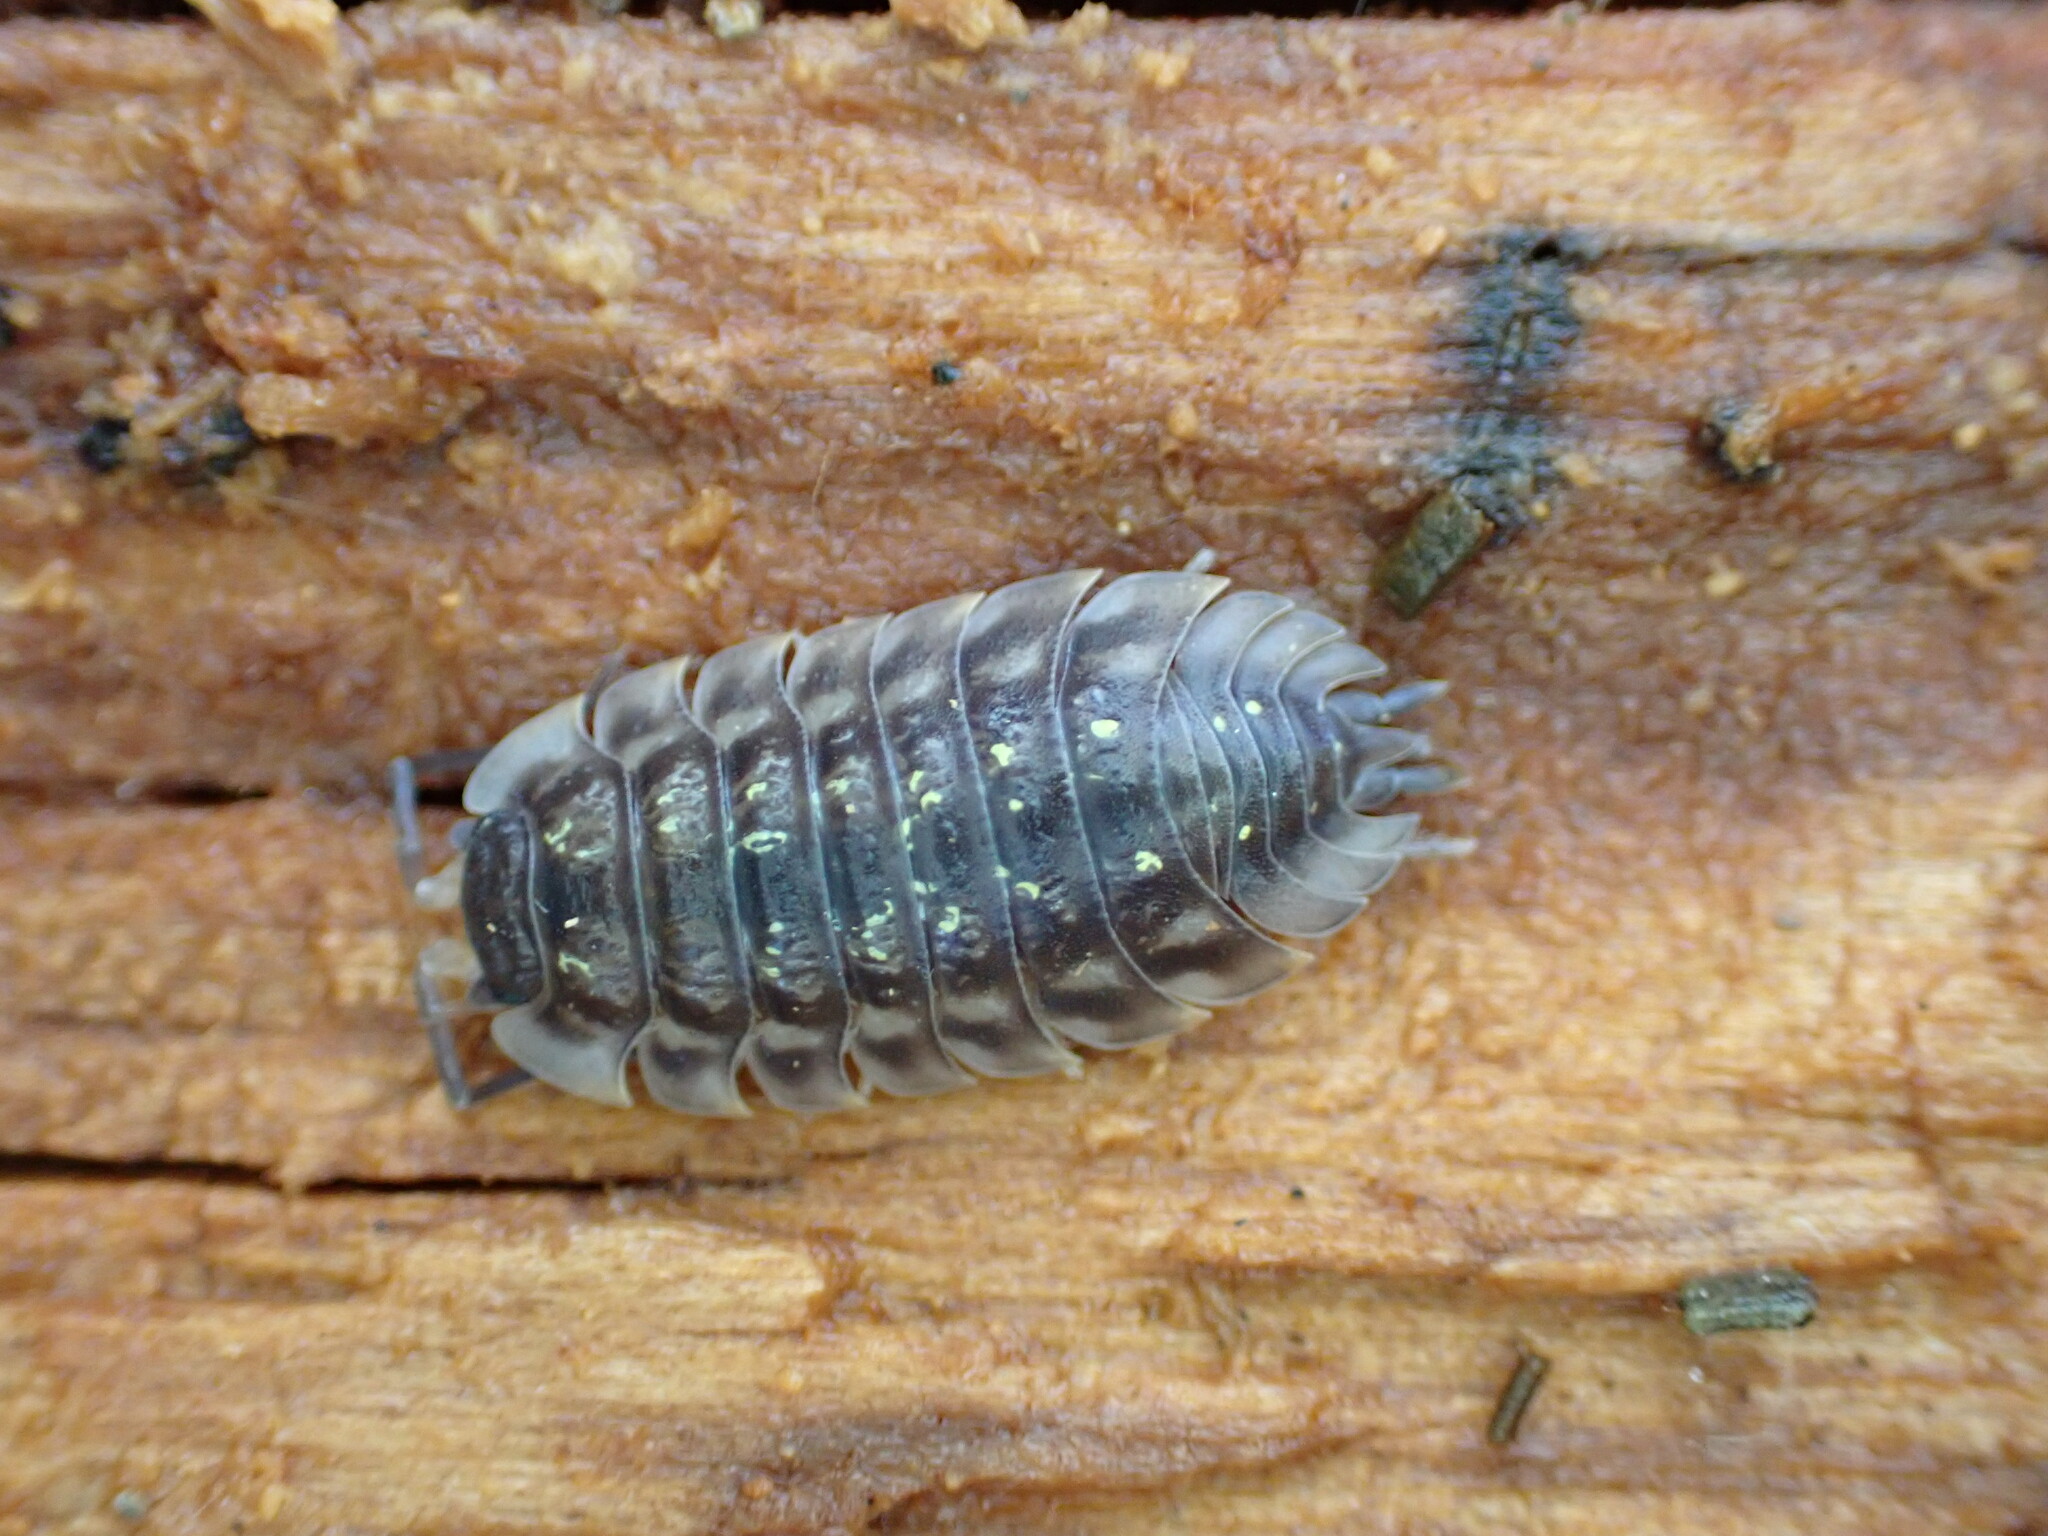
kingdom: Animalia
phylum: Arthropoda
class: Malacostraca
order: Isopoda
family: Oniscidae
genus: Oniscus
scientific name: Oniscus asellus
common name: Common shiny woodlouse
